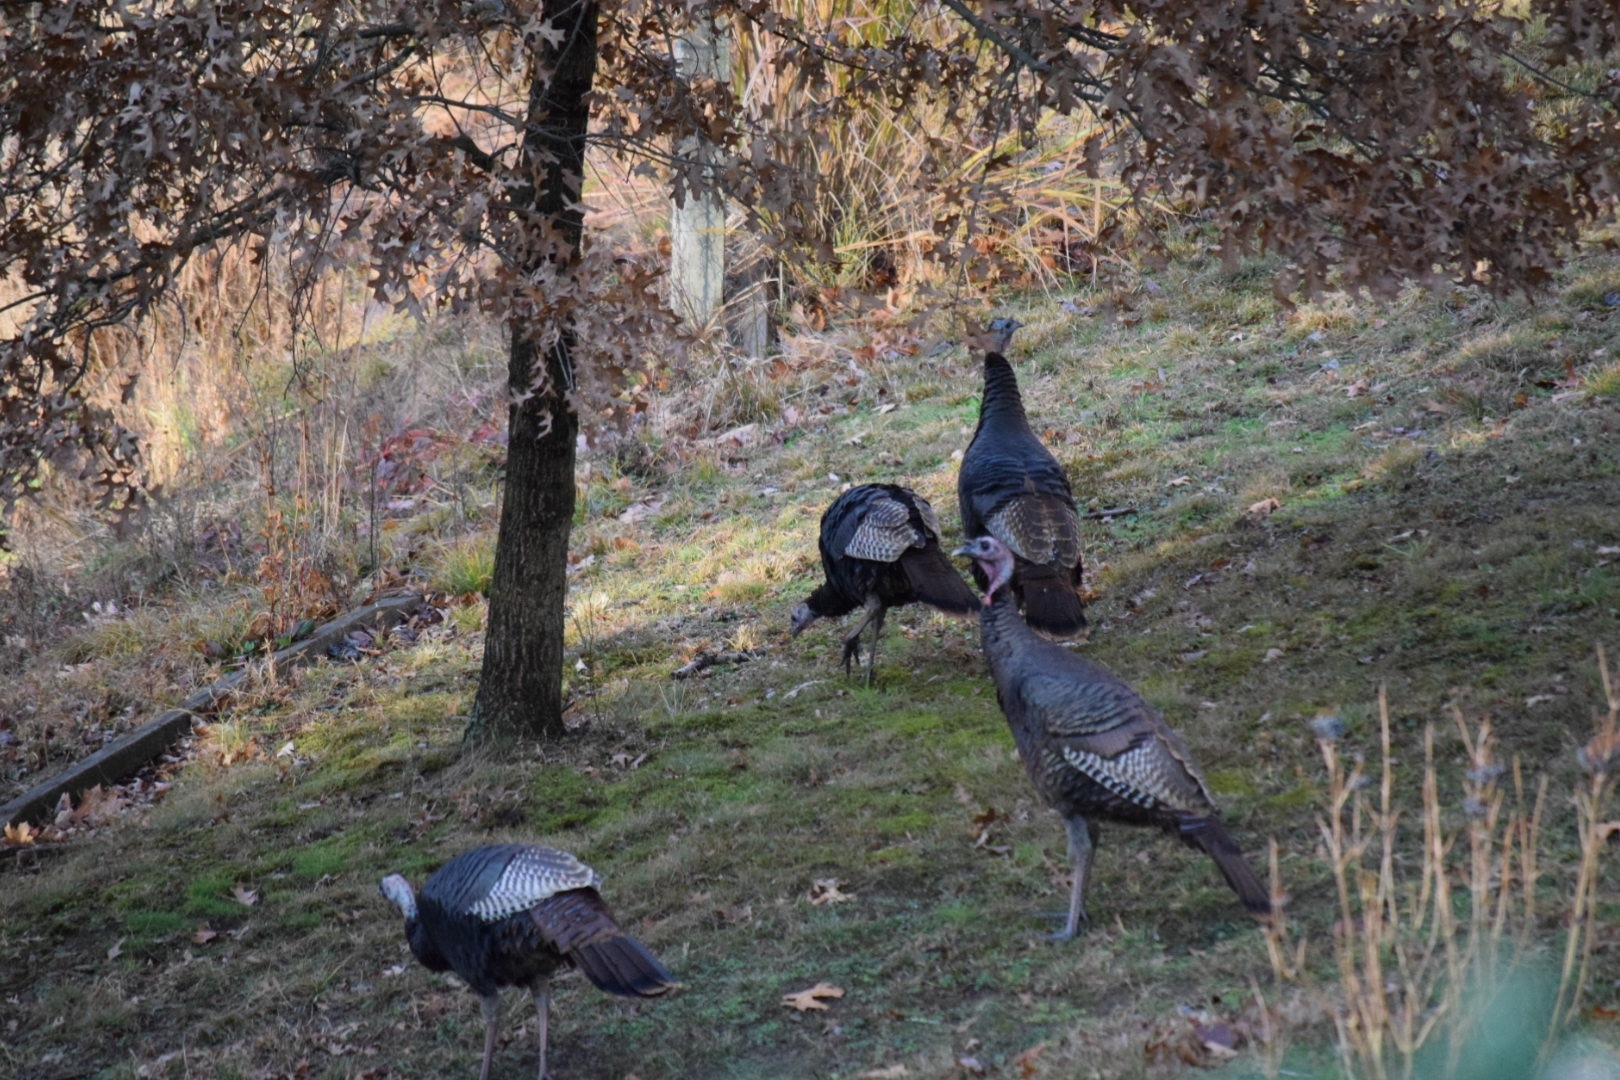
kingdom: Animalia
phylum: Chordata
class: Aves
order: Galliformes
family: Phasianidae
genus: Meleagris
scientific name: Meleagris gallopavo
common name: Wild turkey
